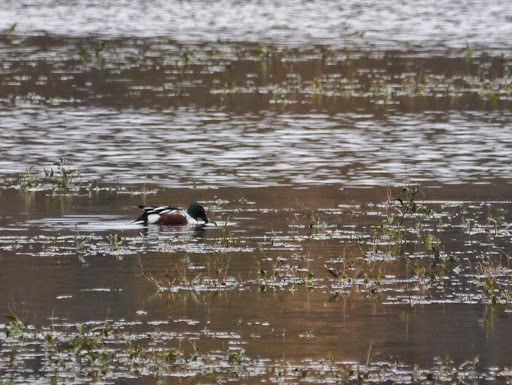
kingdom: Animalia
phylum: Chordata
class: Aves
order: Anseriformes
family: Anatidae
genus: Spatula
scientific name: Spatula clypeata
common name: Northern shoveler
